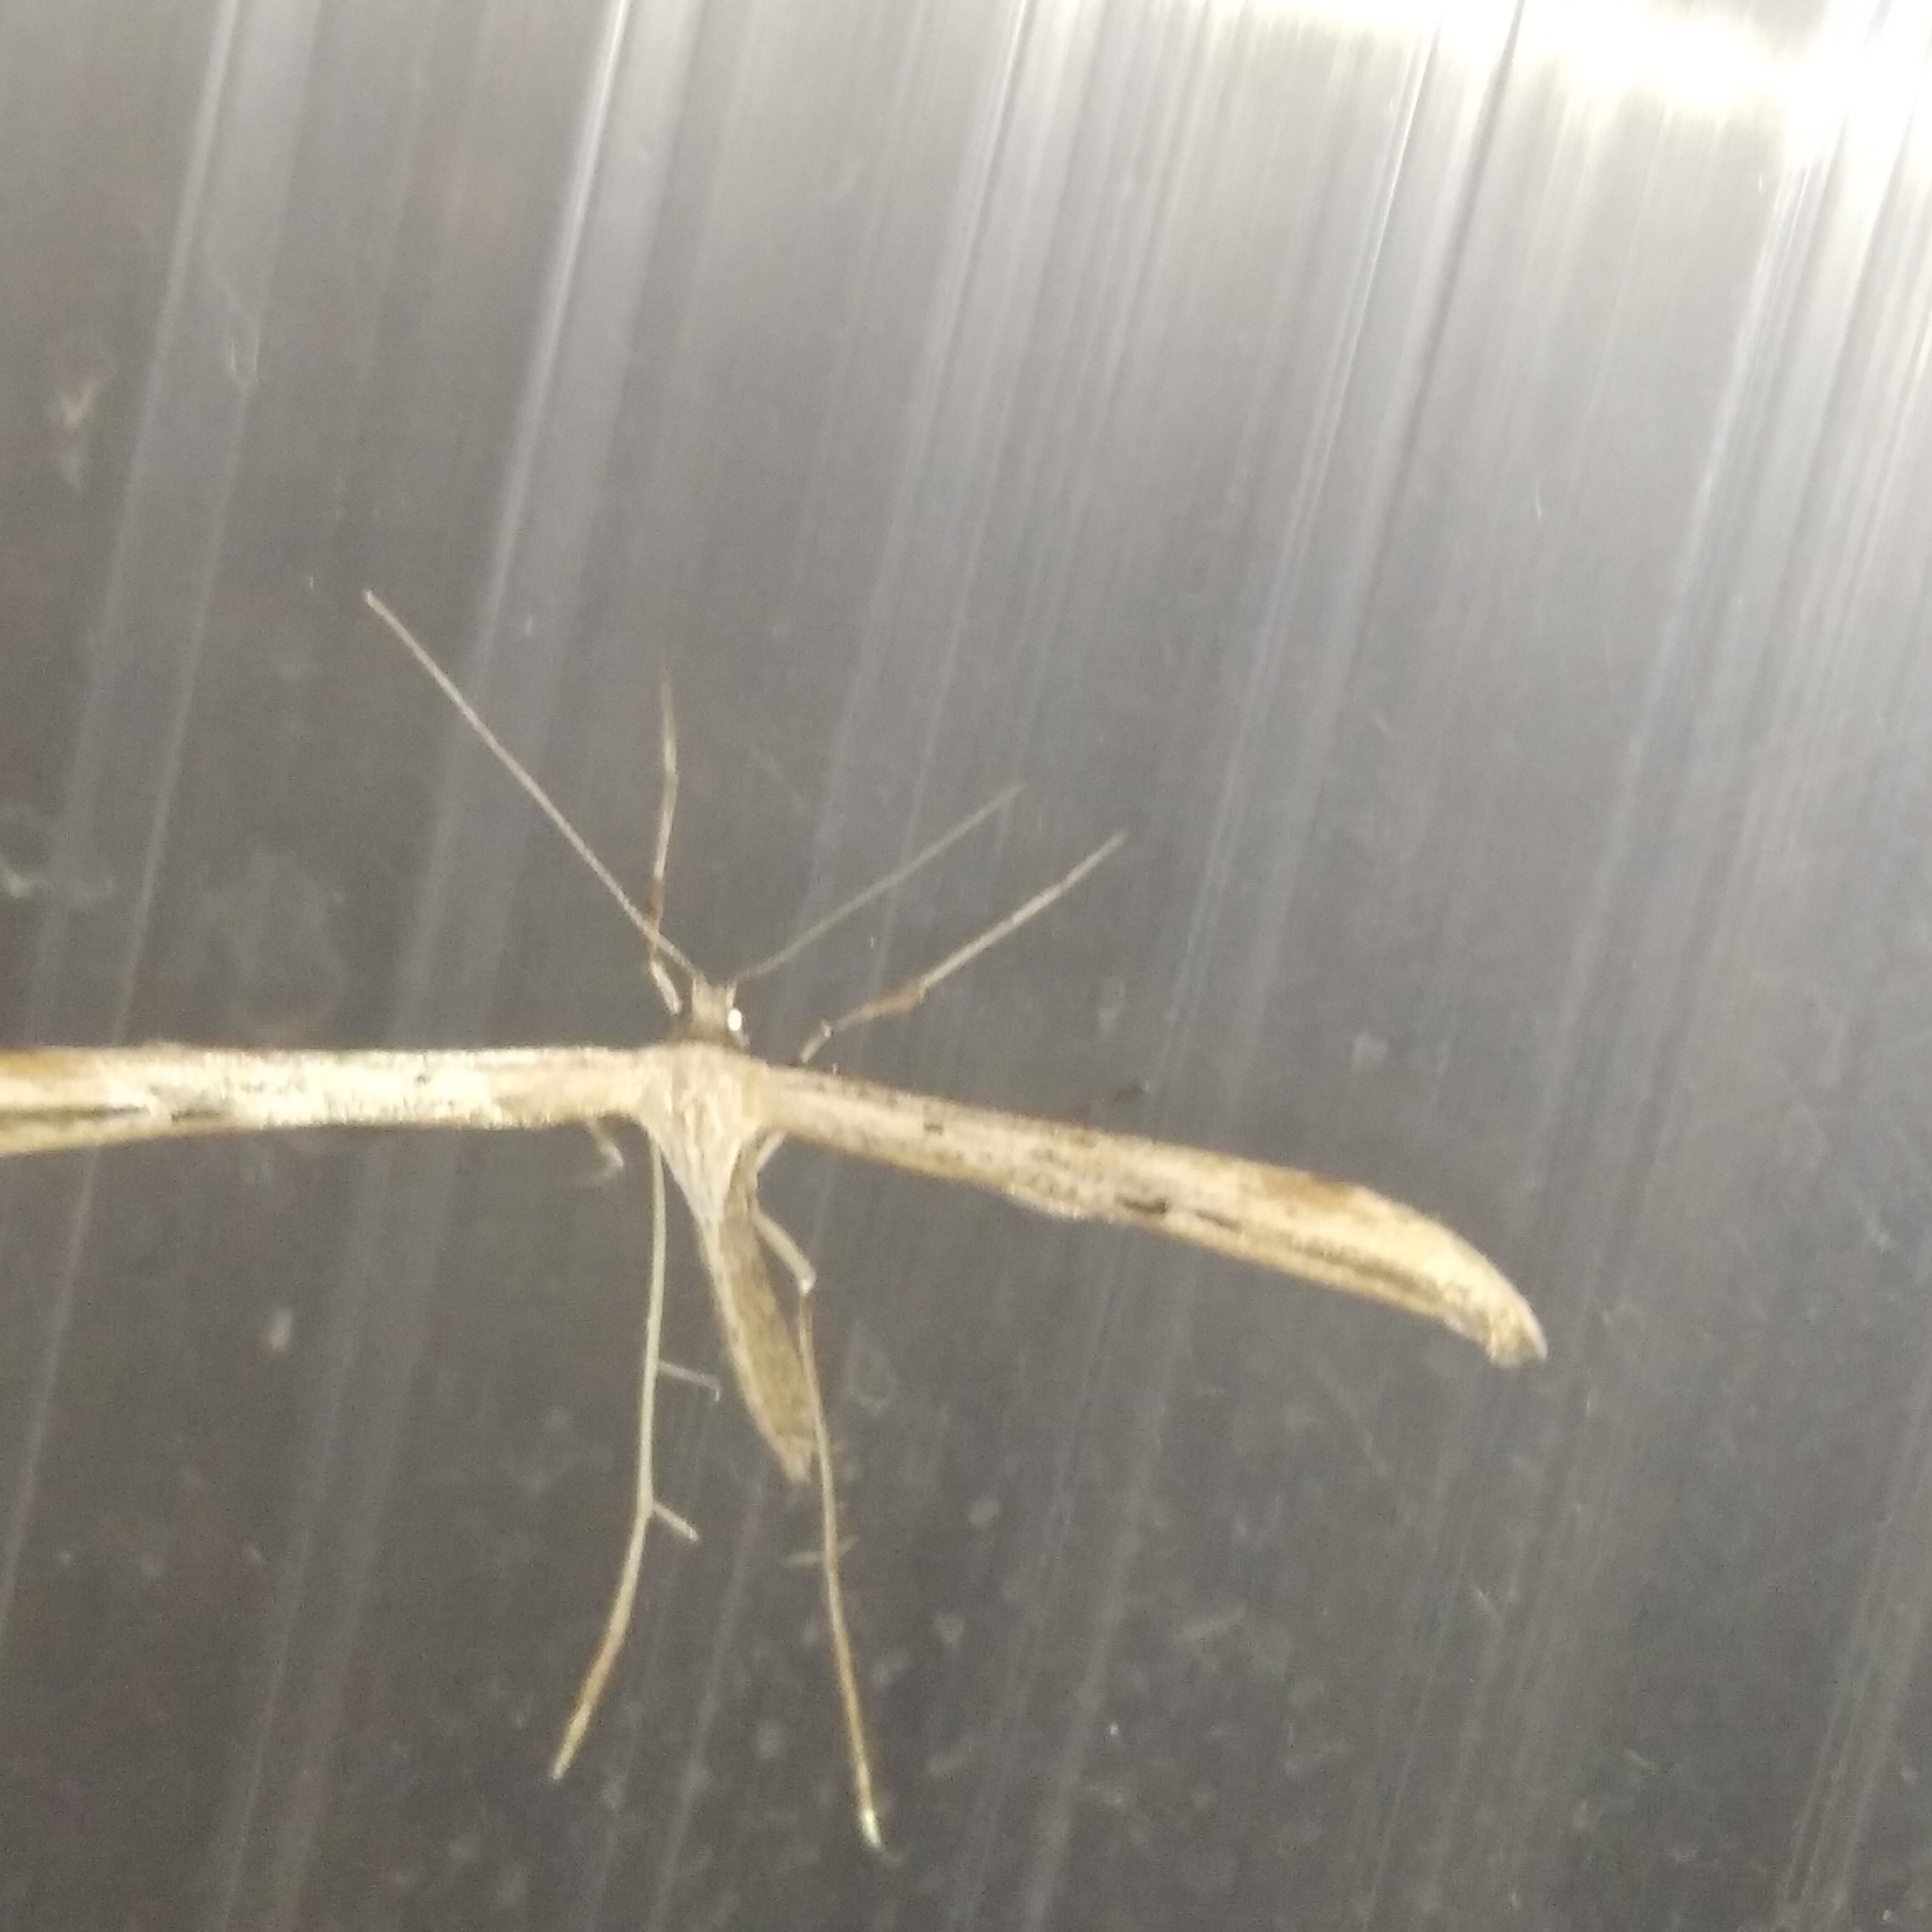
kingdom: Animalia
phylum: Arthropoda
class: Insecta
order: Lepidoptera
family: Pterophoridae
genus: Emmelina
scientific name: Emmelina monodactyla
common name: Common plume
